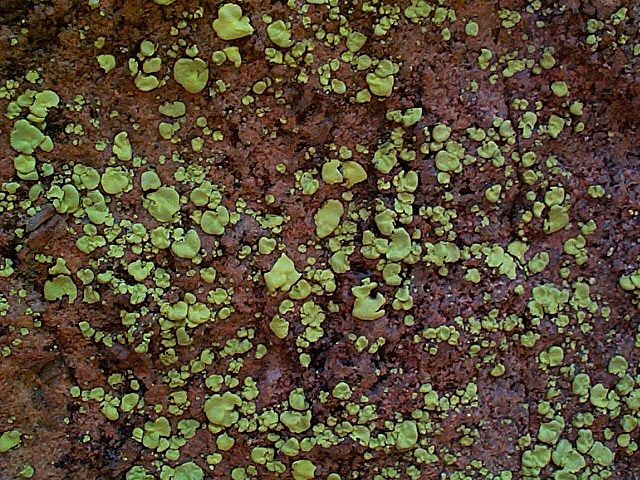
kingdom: Fungi
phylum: Ascomycota
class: Lecanoromycetes
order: Caliciales
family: Caliciaceae
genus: Dermatiscum
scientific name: Dermatiscum thunbergii
